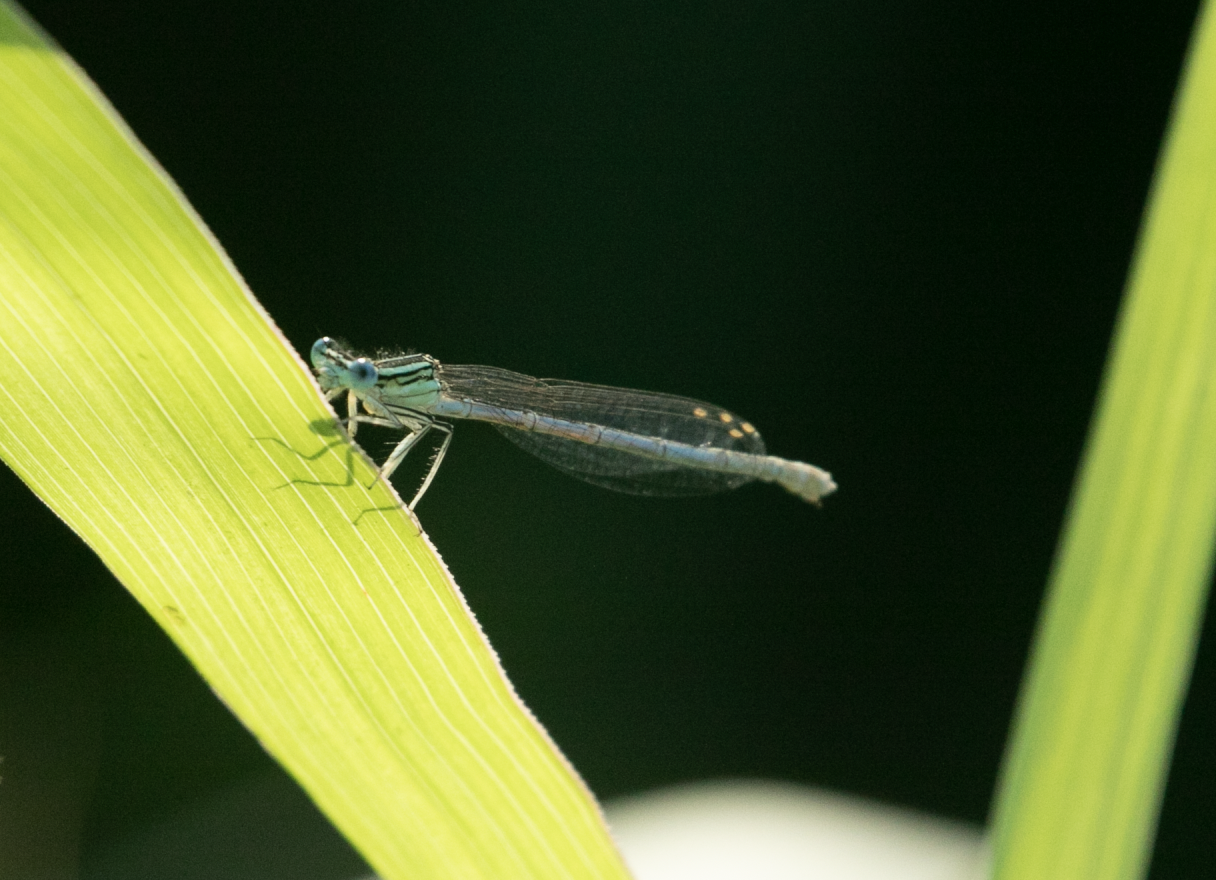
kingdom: Animalia
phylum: Arthropoda
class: Insecta
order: Odonata
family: Platycnemididae
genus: Platycnemis
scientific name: Platycnemis pennipes
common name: White-legged damselfly
